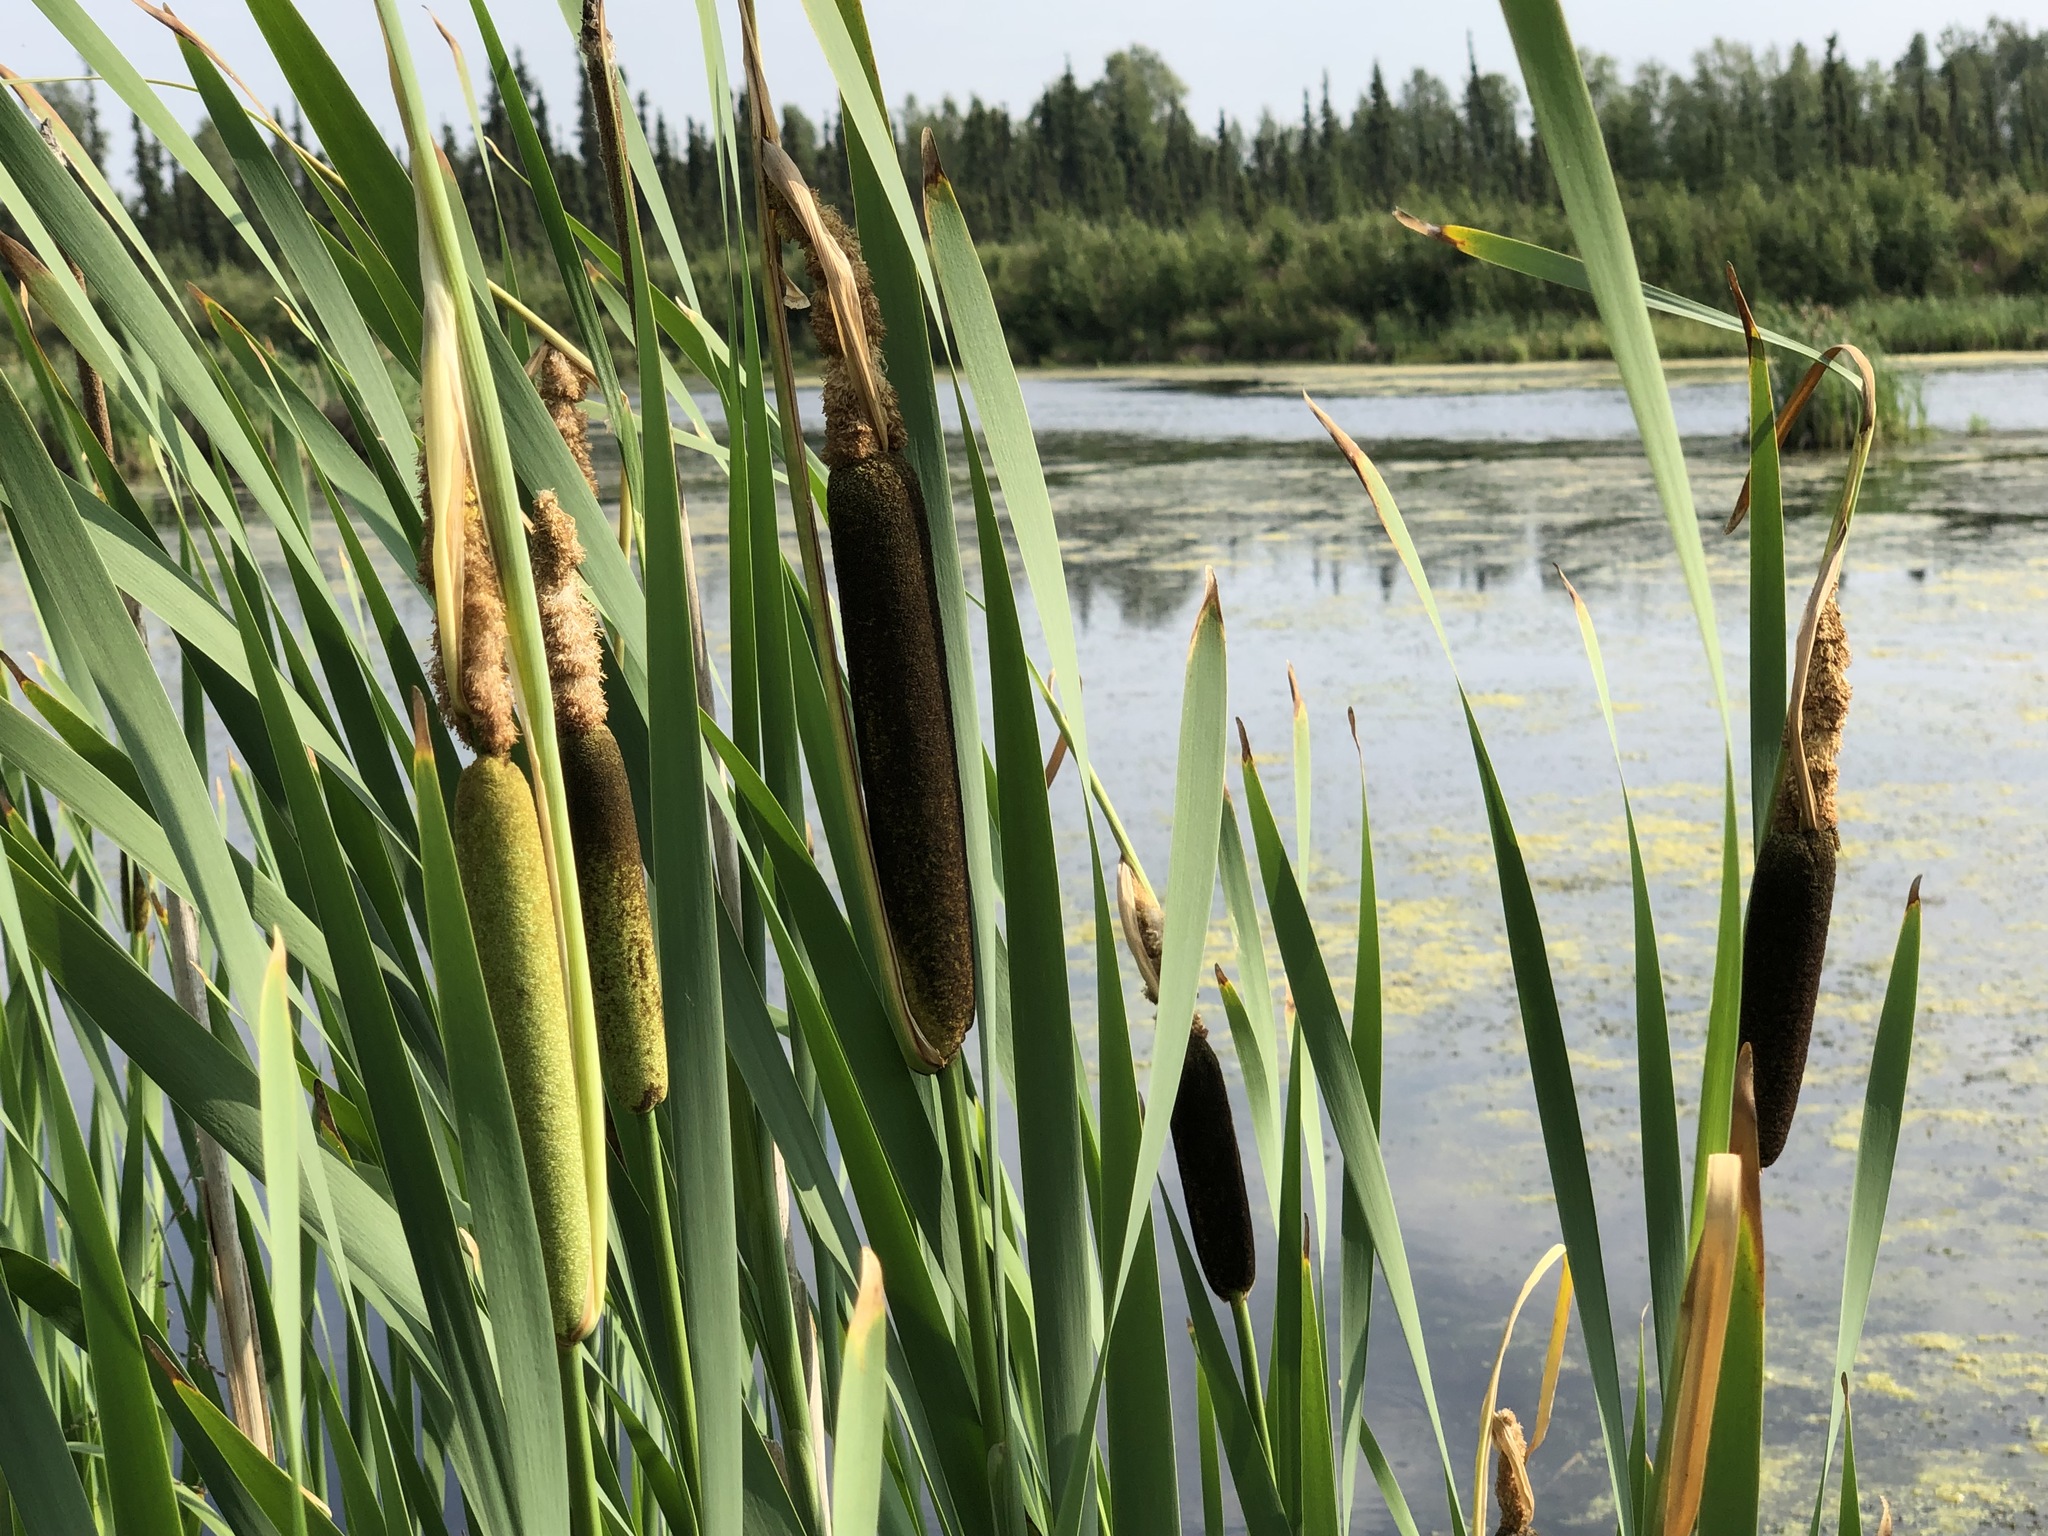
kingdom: Plantae
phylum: Tracheophyta
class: Liliopsida
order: Poales
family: Typhaceae
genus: Typha
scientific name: Typha latifolia
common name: Broadleaf cattail
